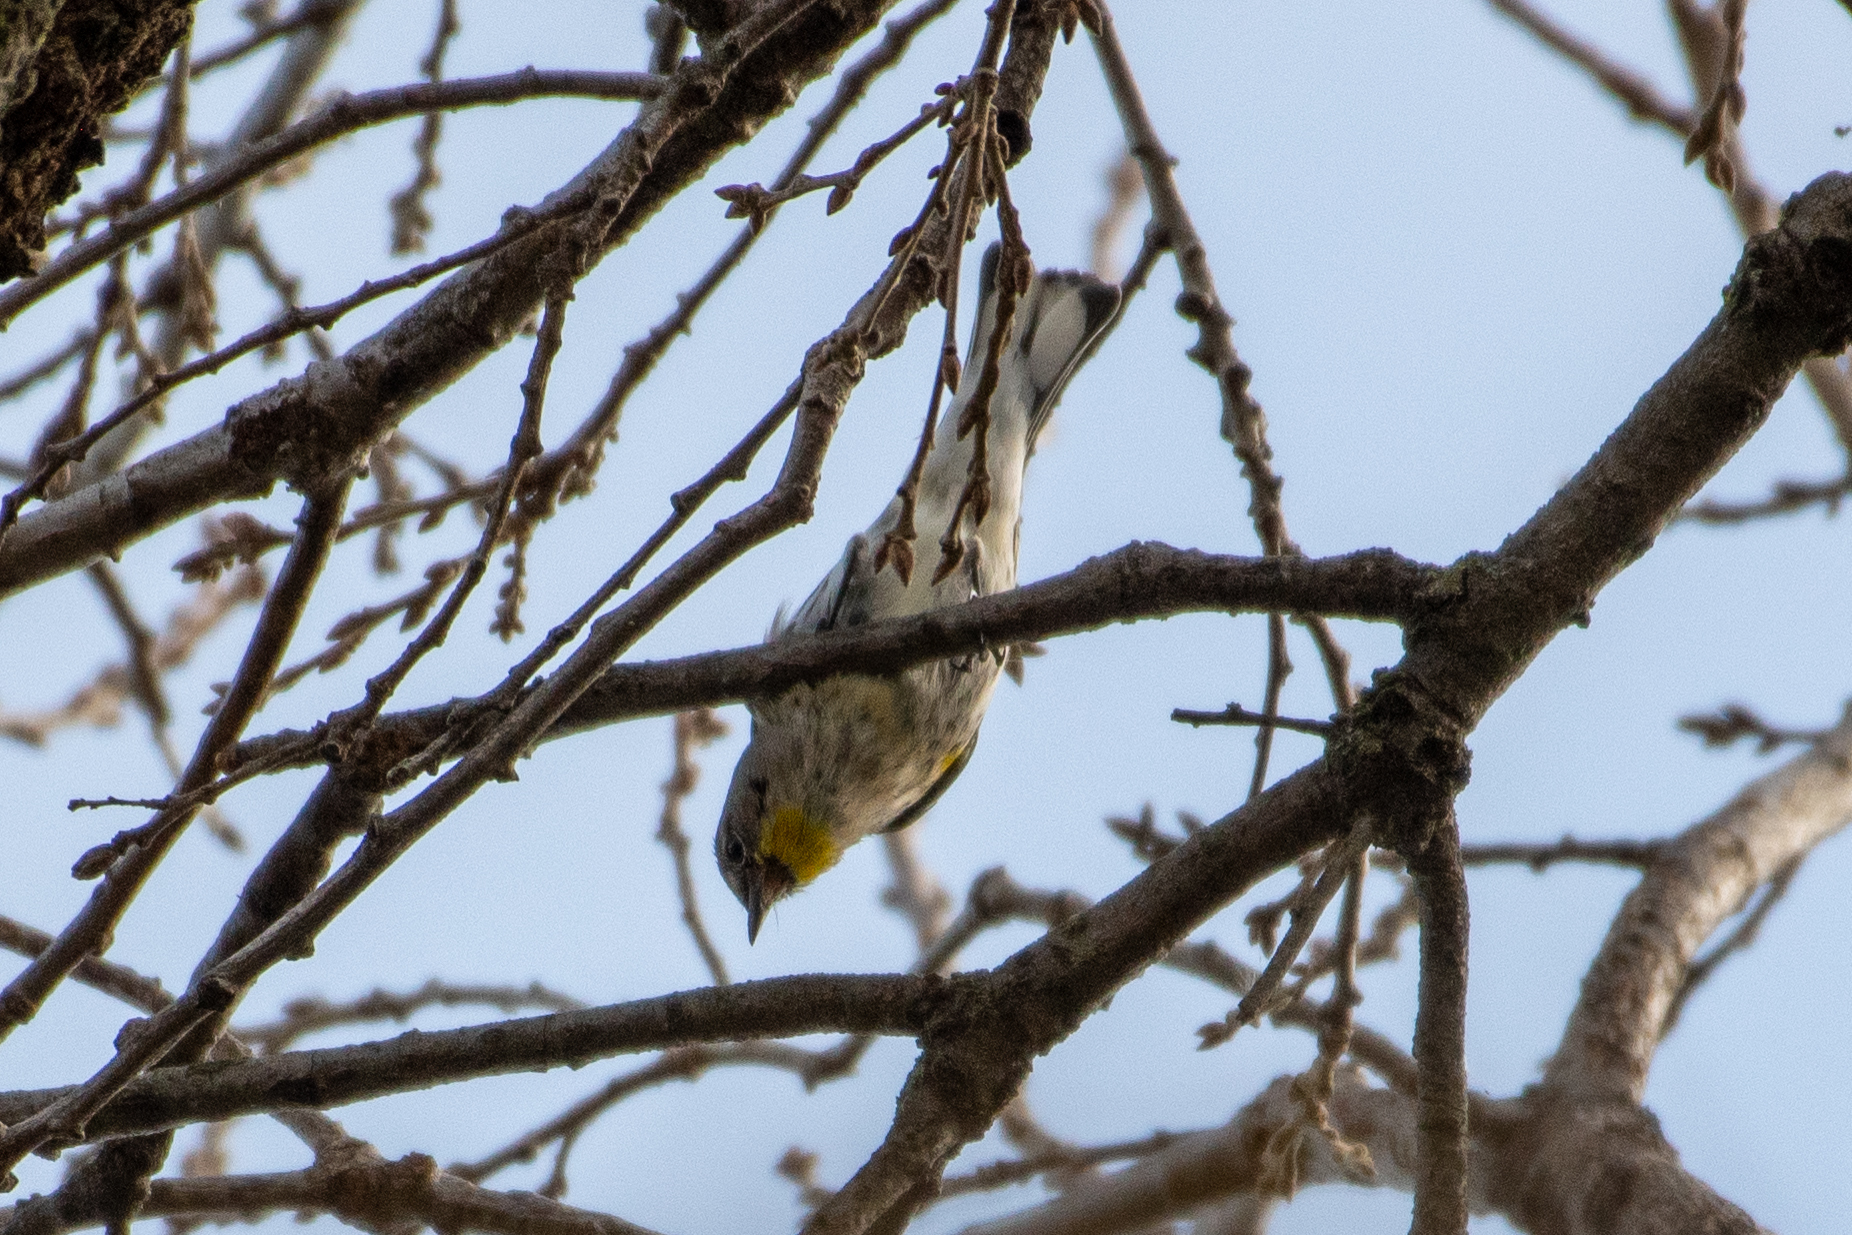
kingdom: Animalia
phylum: Chordata
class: Aves
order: Passeriformes
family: Parulidae
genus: Setophaga
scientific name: Setophaga coronata
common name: Myrtle warbler
